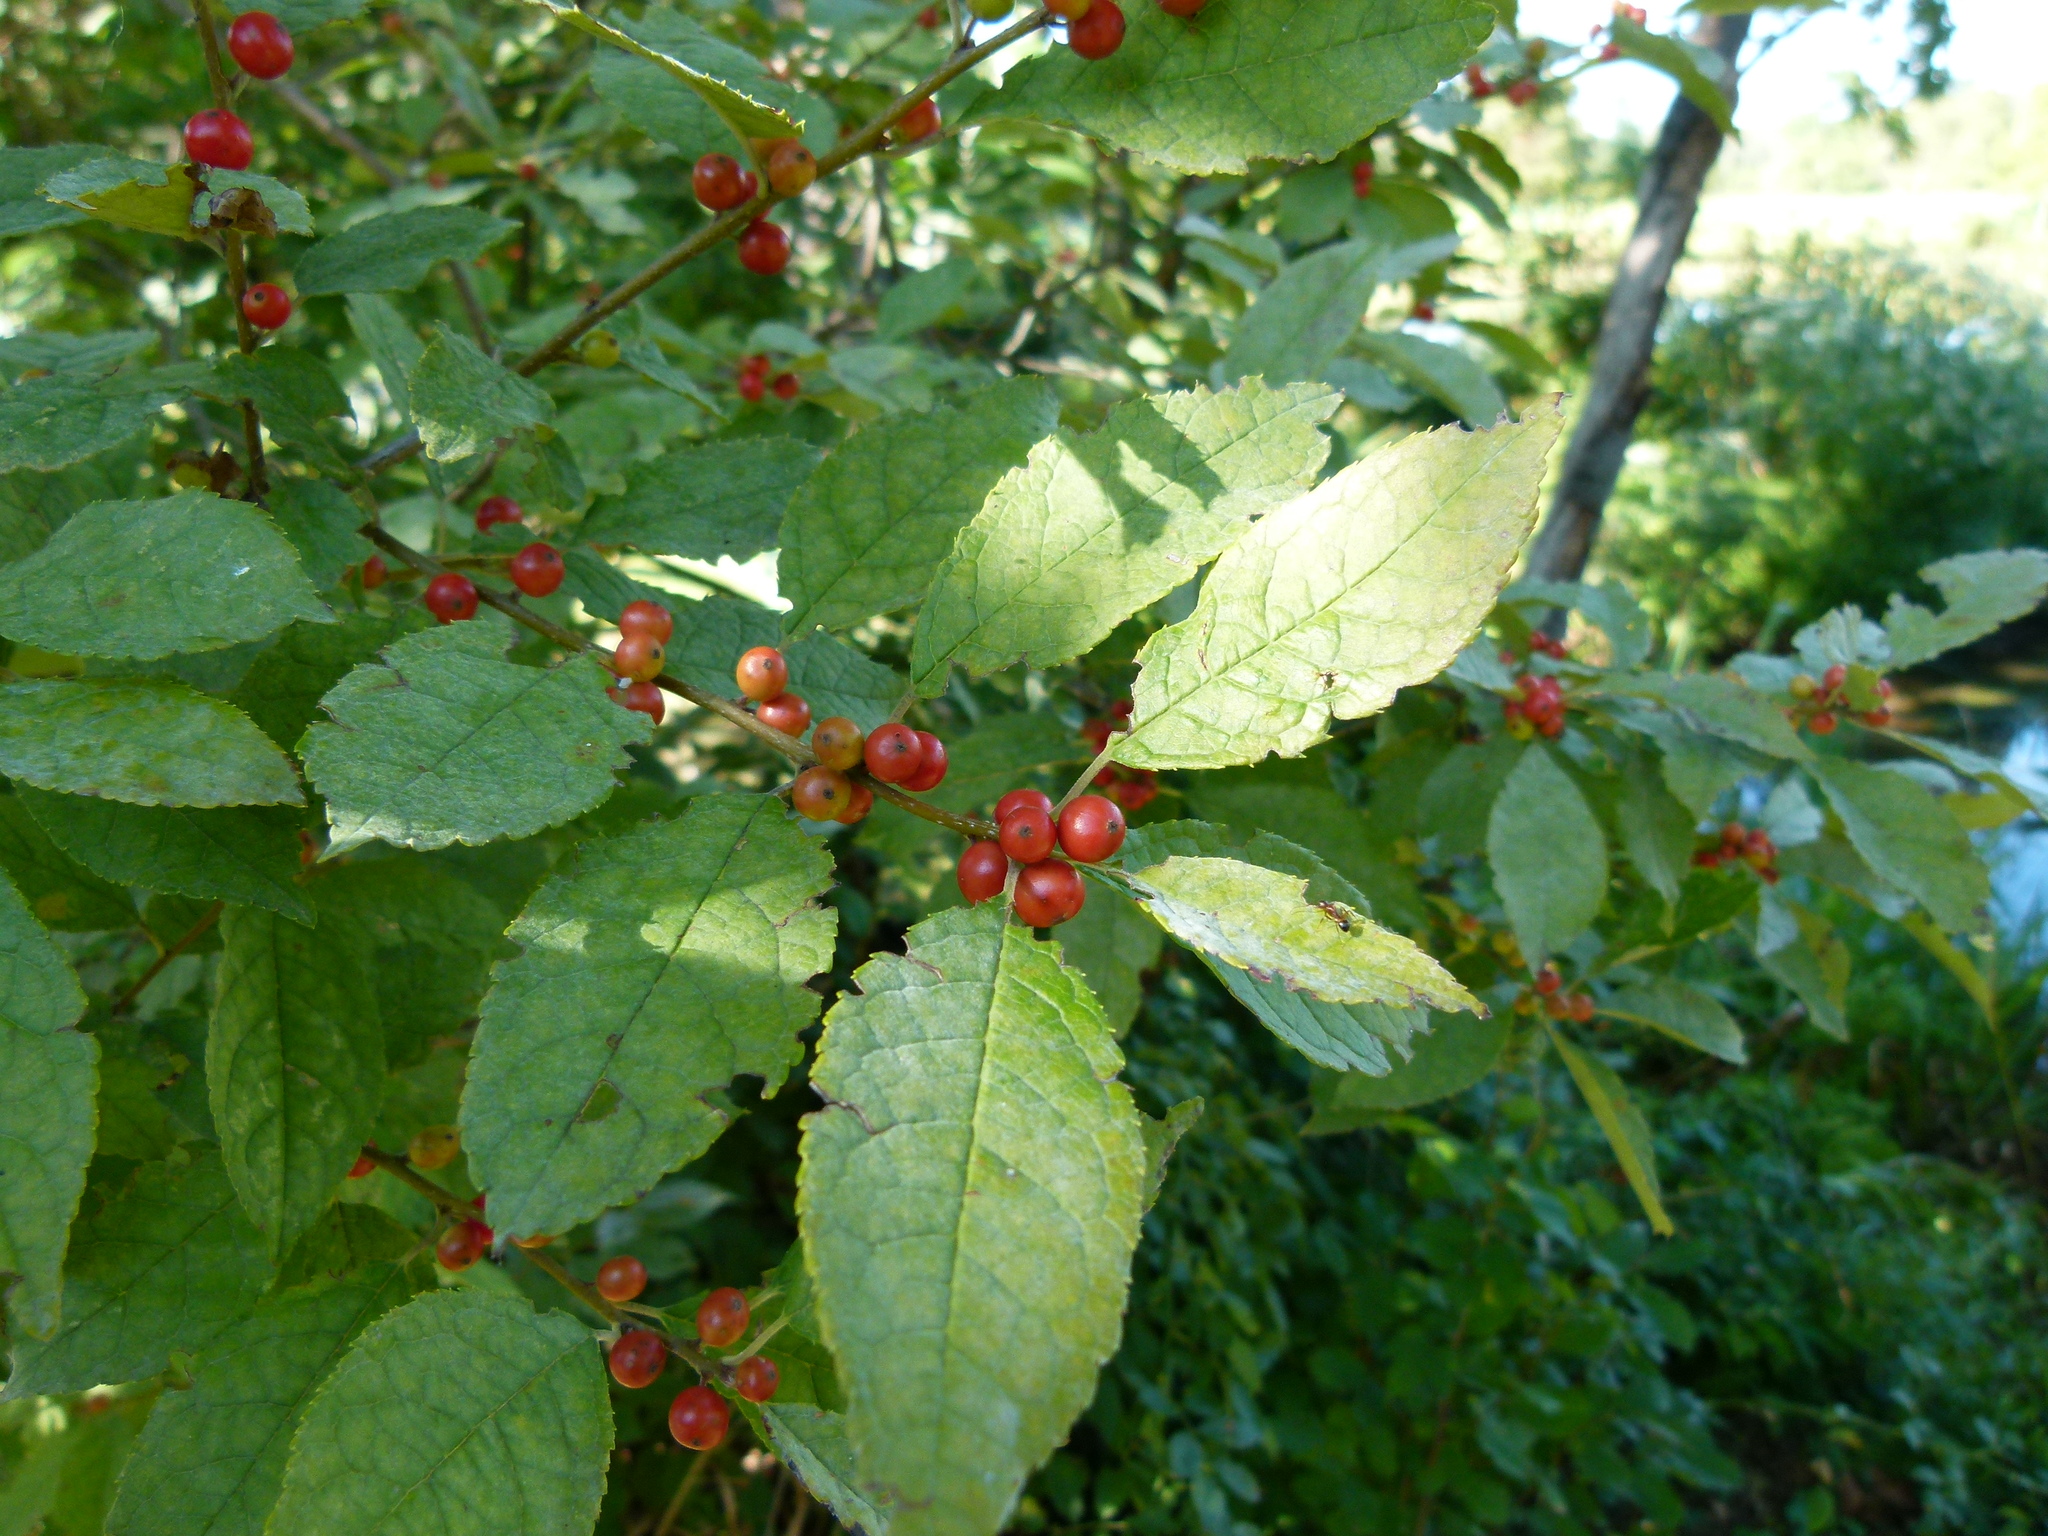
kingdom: Plantae
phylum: Tracheophyta
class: Magnoliopsida
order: Aquifoliales
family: Aquifoliaceae
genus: Ilex
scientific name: Ilex verticillata
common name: Virginia winterberry
